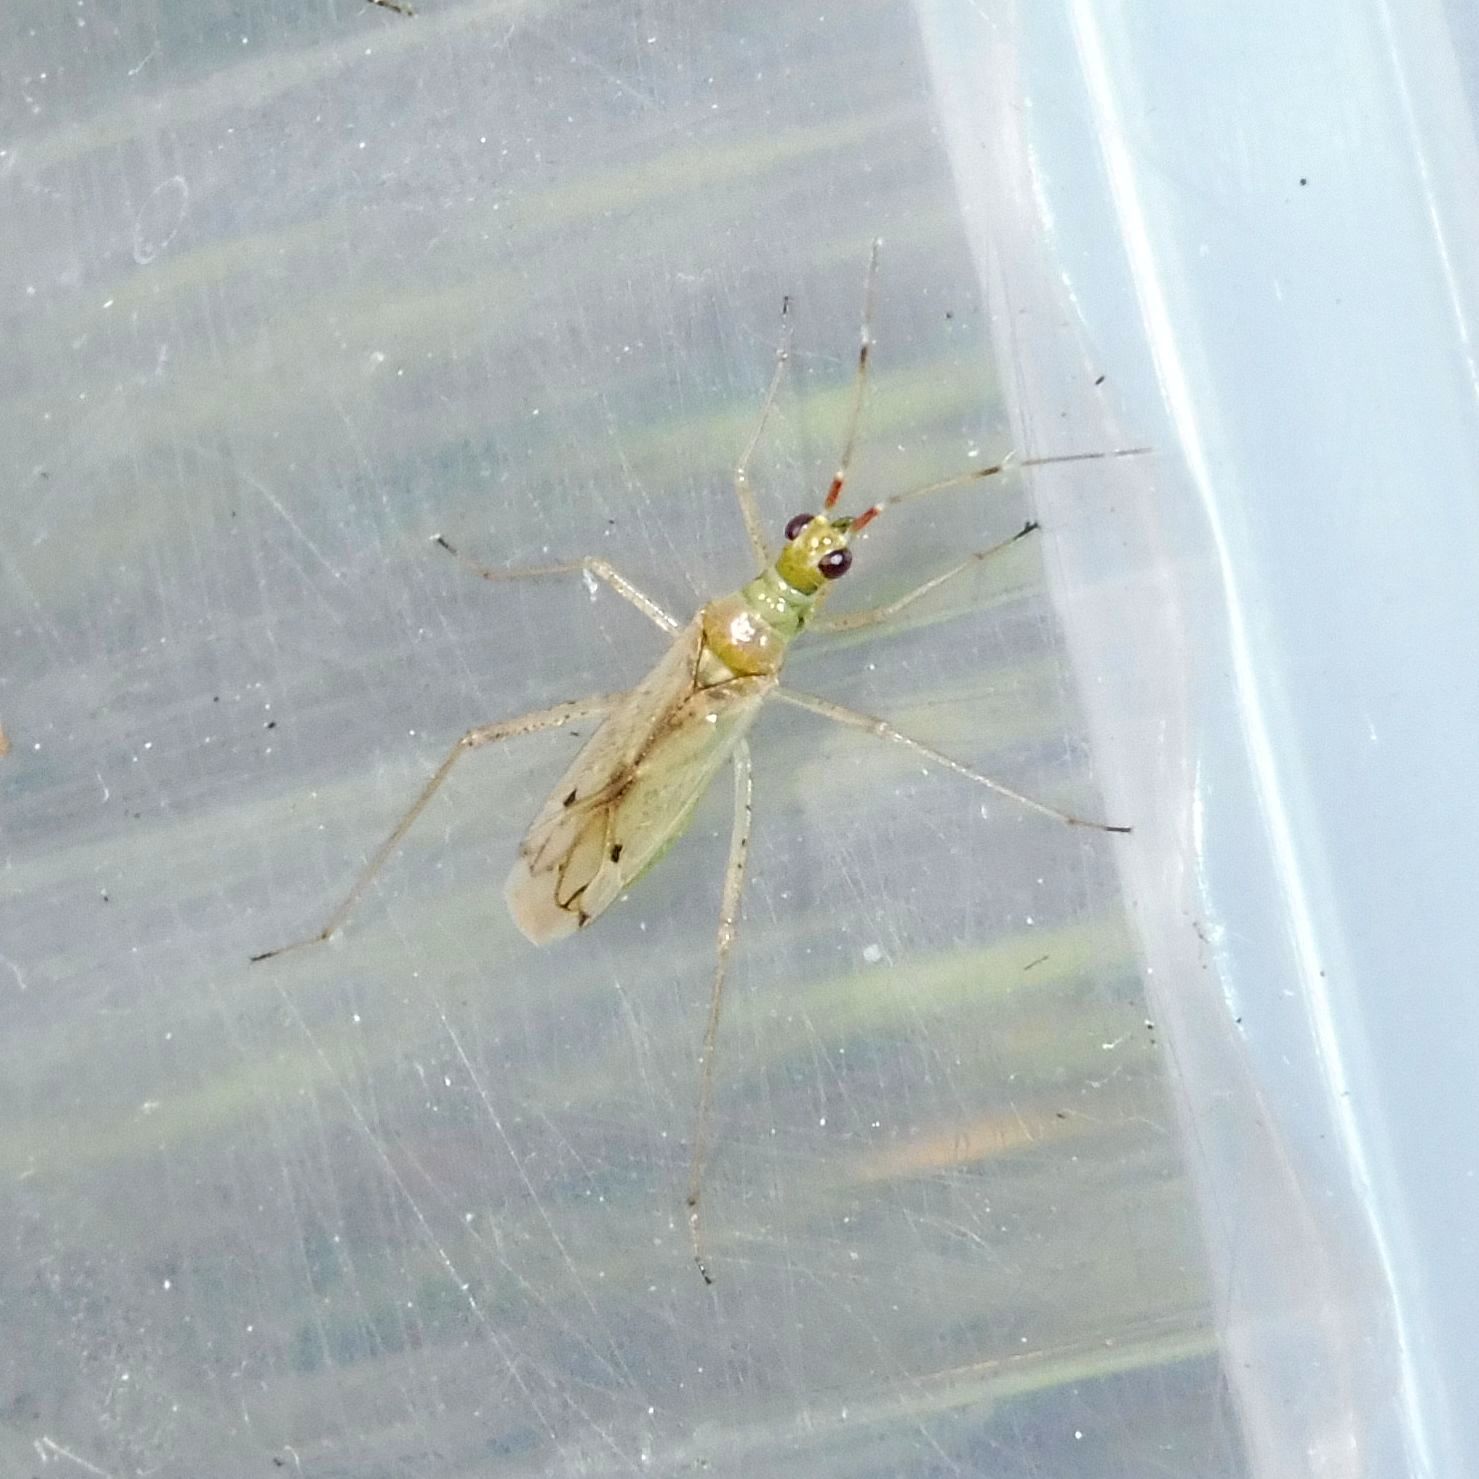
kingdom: Animalia
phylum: Arthropoda
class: Insecta
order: Hemiptera
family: Miridae
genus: Dicyphus
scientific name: Dicyphus epilobii
